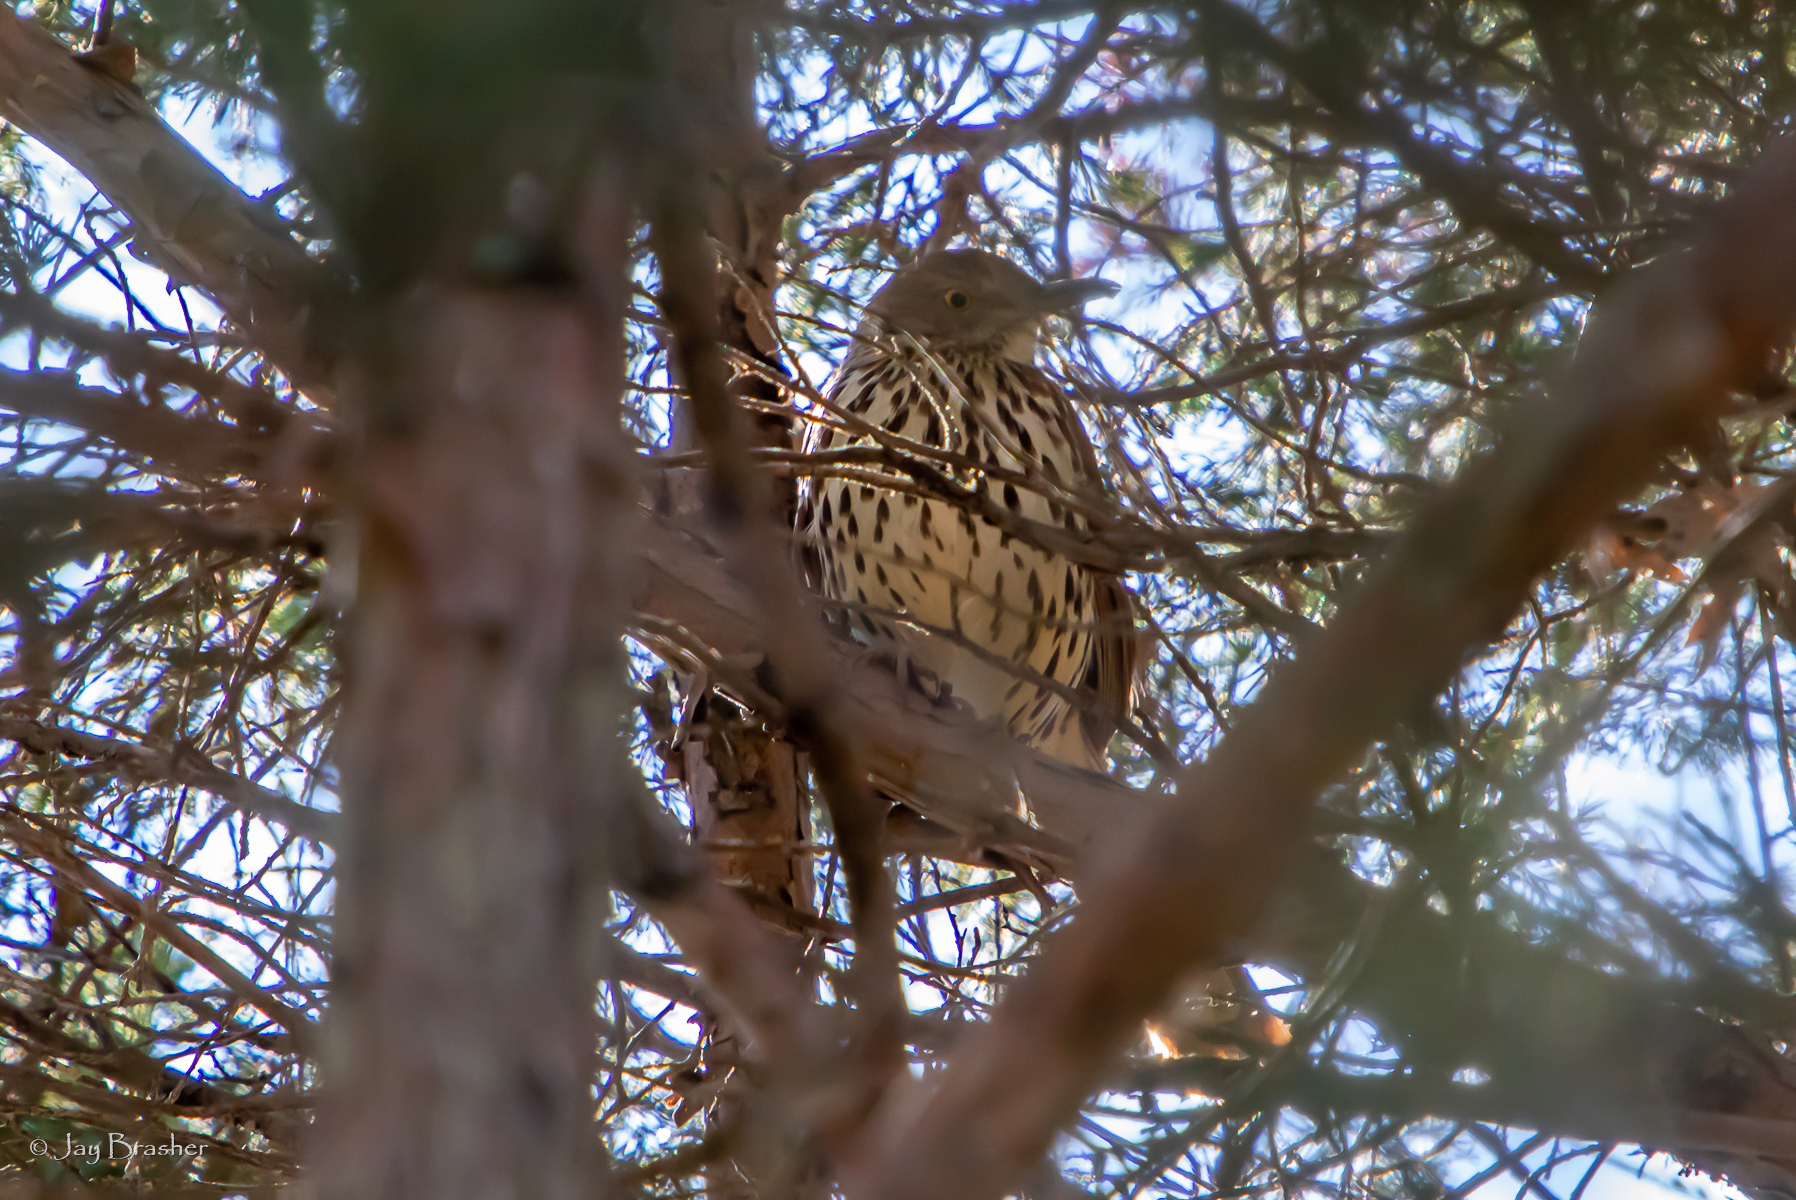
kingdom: Animalia
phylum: Chordata
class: Aves
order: Passeriformes
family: Mimidae
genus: Toxostoma
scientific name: Toxostoma rufum
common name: Brown thrasher
